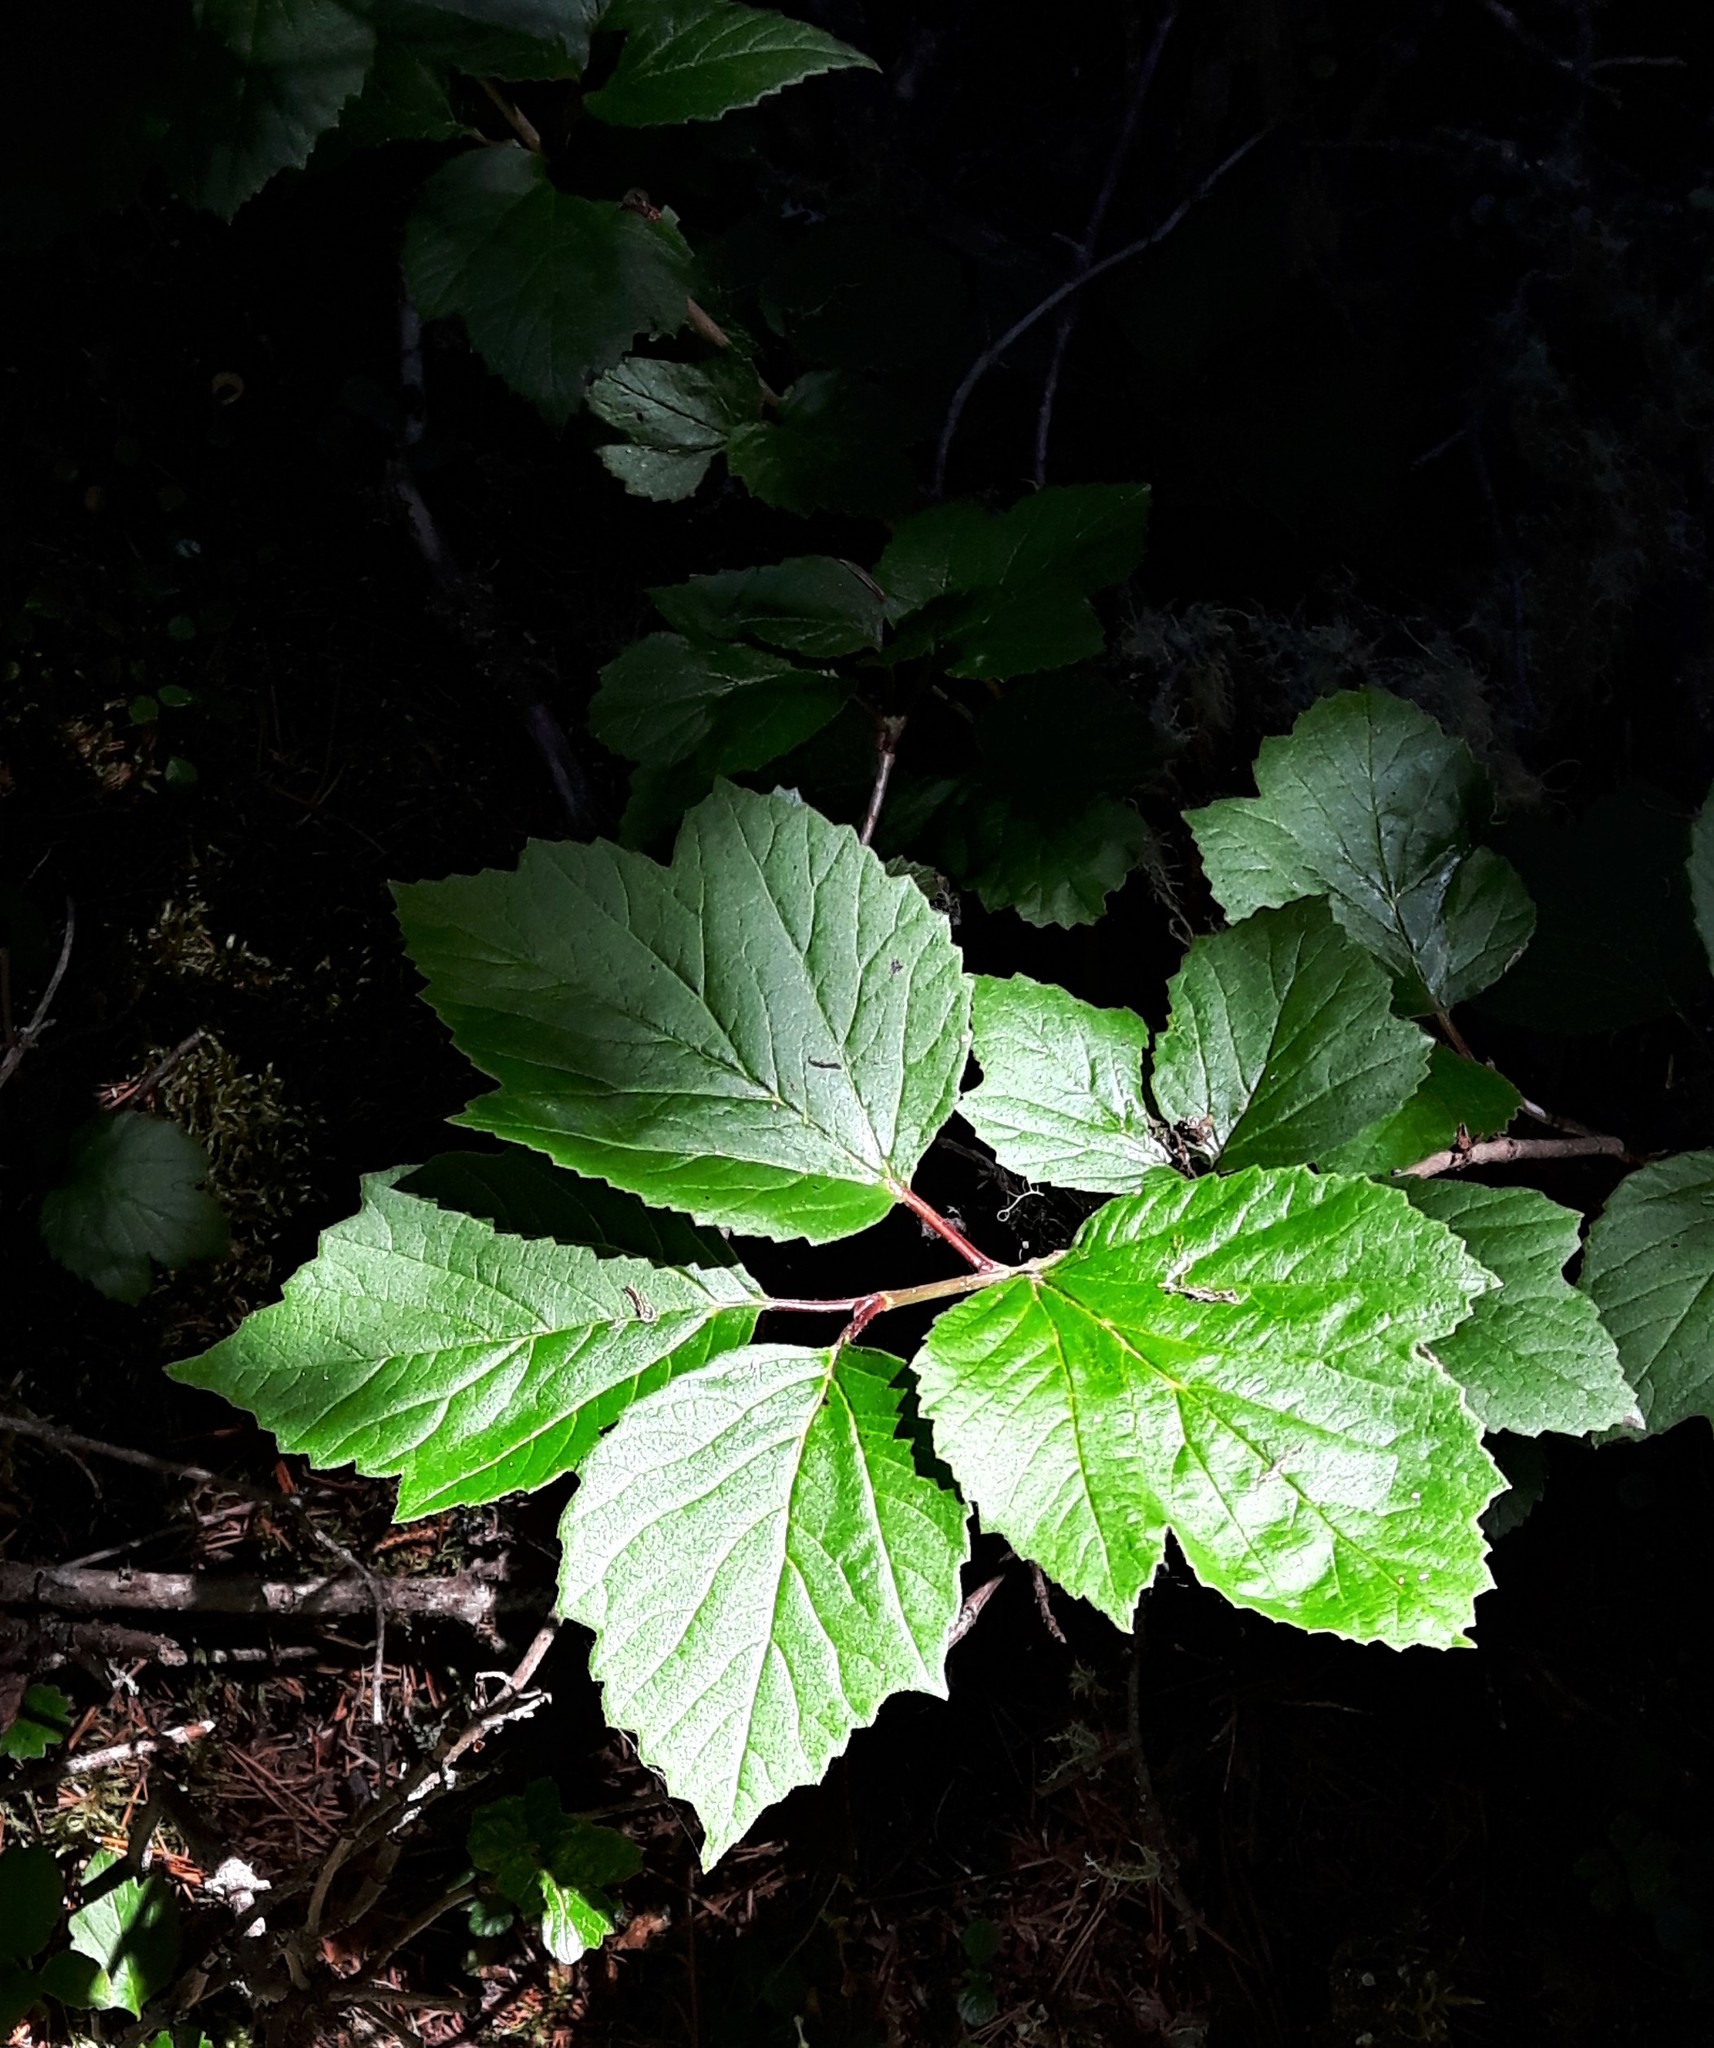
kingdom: Plantae
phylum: Tracheophyta
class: Magnoliopsida
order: Dipsacales
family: Viburnaceae
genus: Viburnum
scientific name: Viburnum edule
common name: Mooseberry
